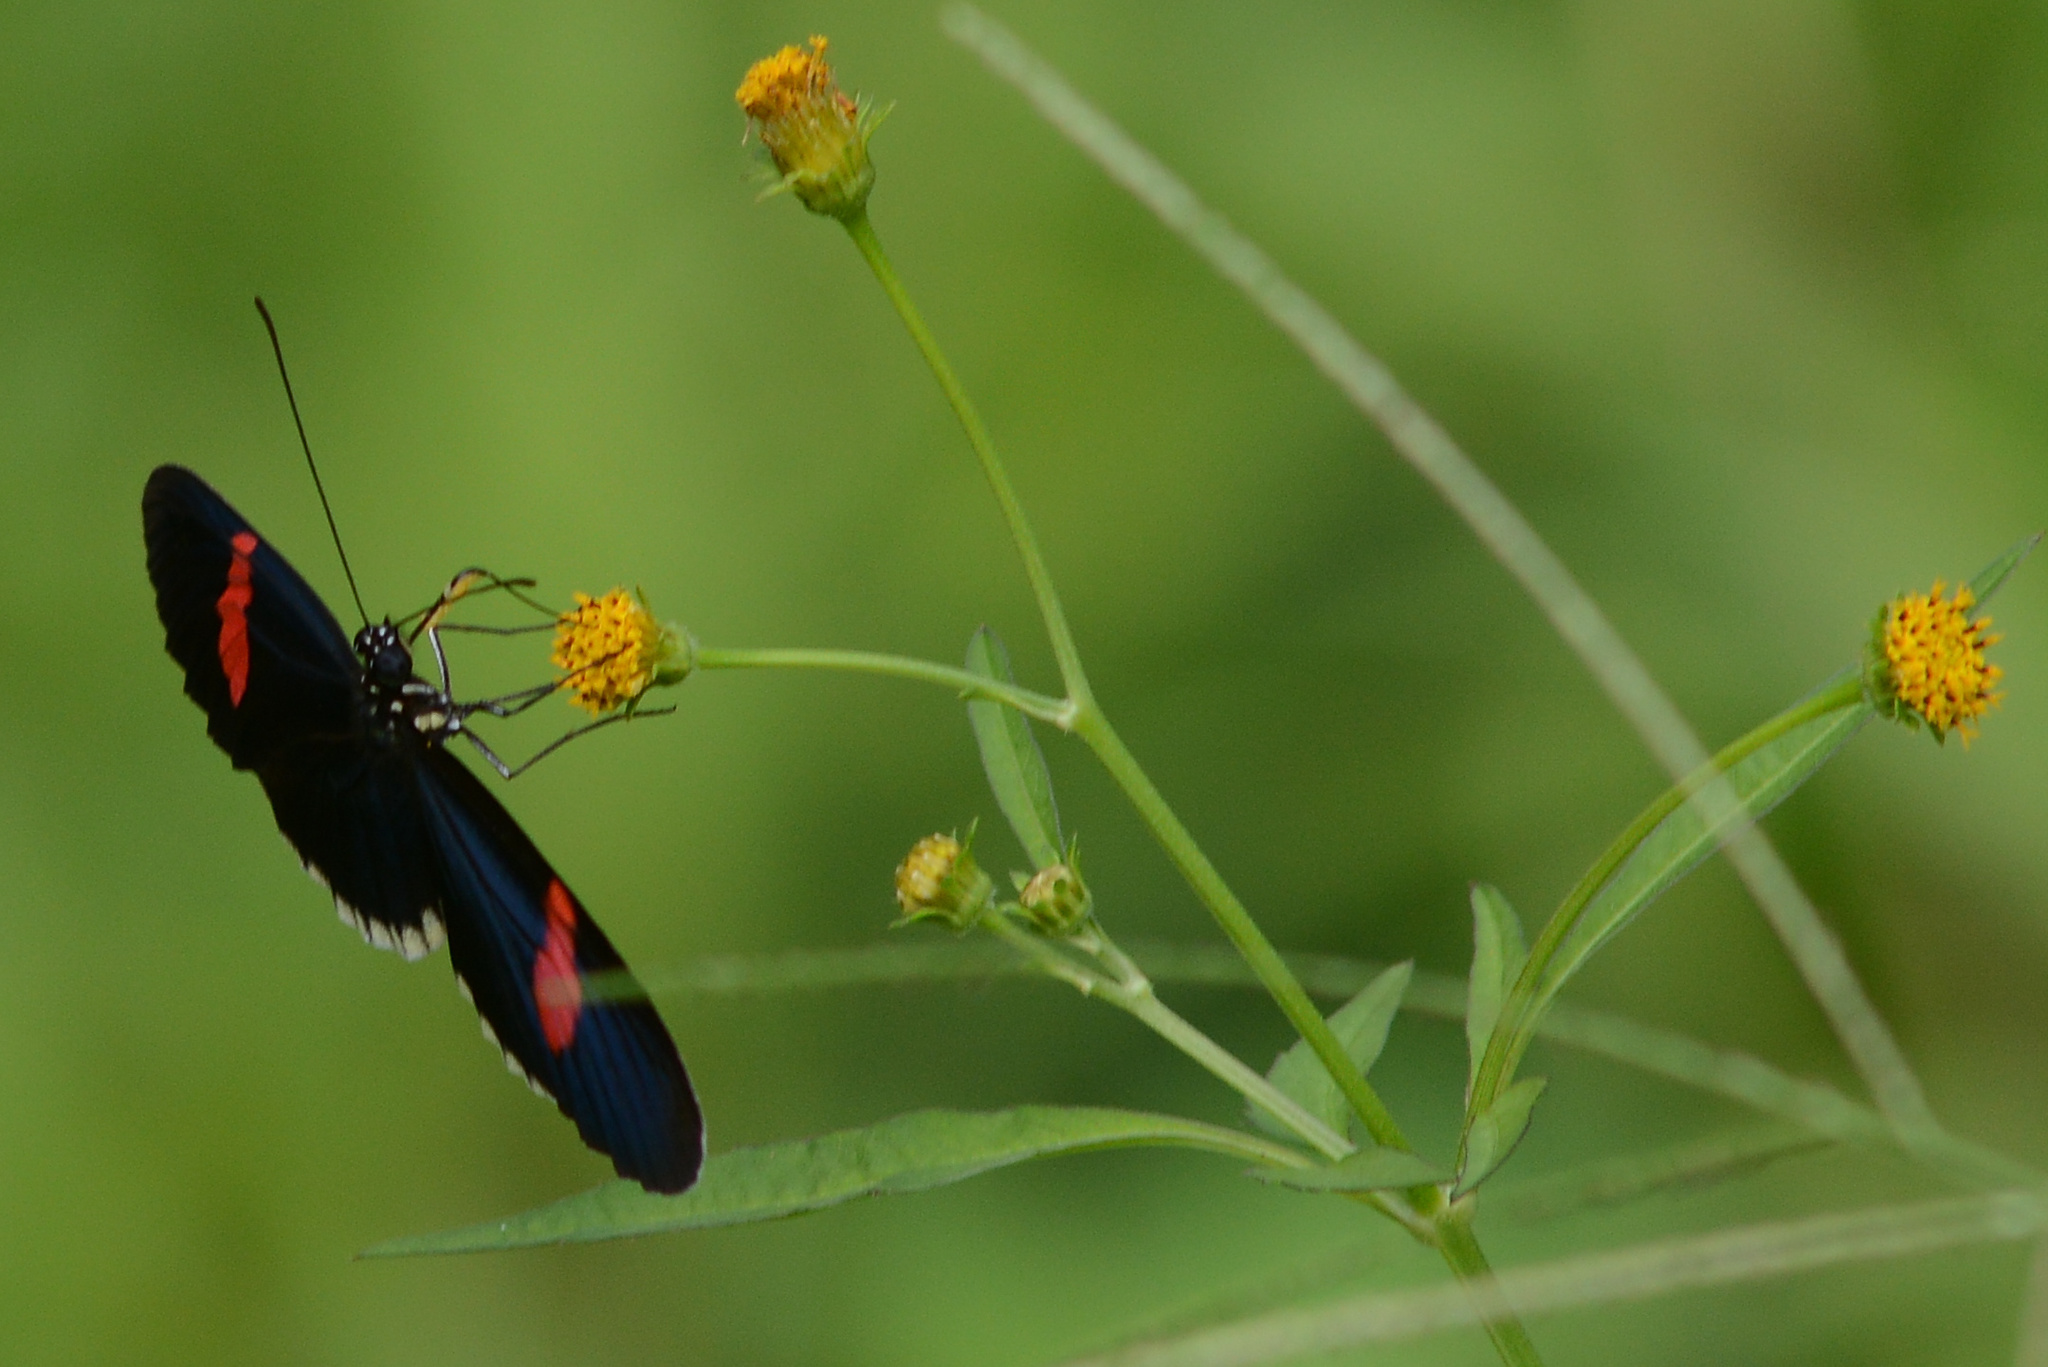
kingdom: Animalia
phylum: Arthropoda
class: Insecta
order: Lepidoptera
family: Nymphalidae
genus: Heliconius
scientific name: Heliconius erato
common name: Common patch longwing
